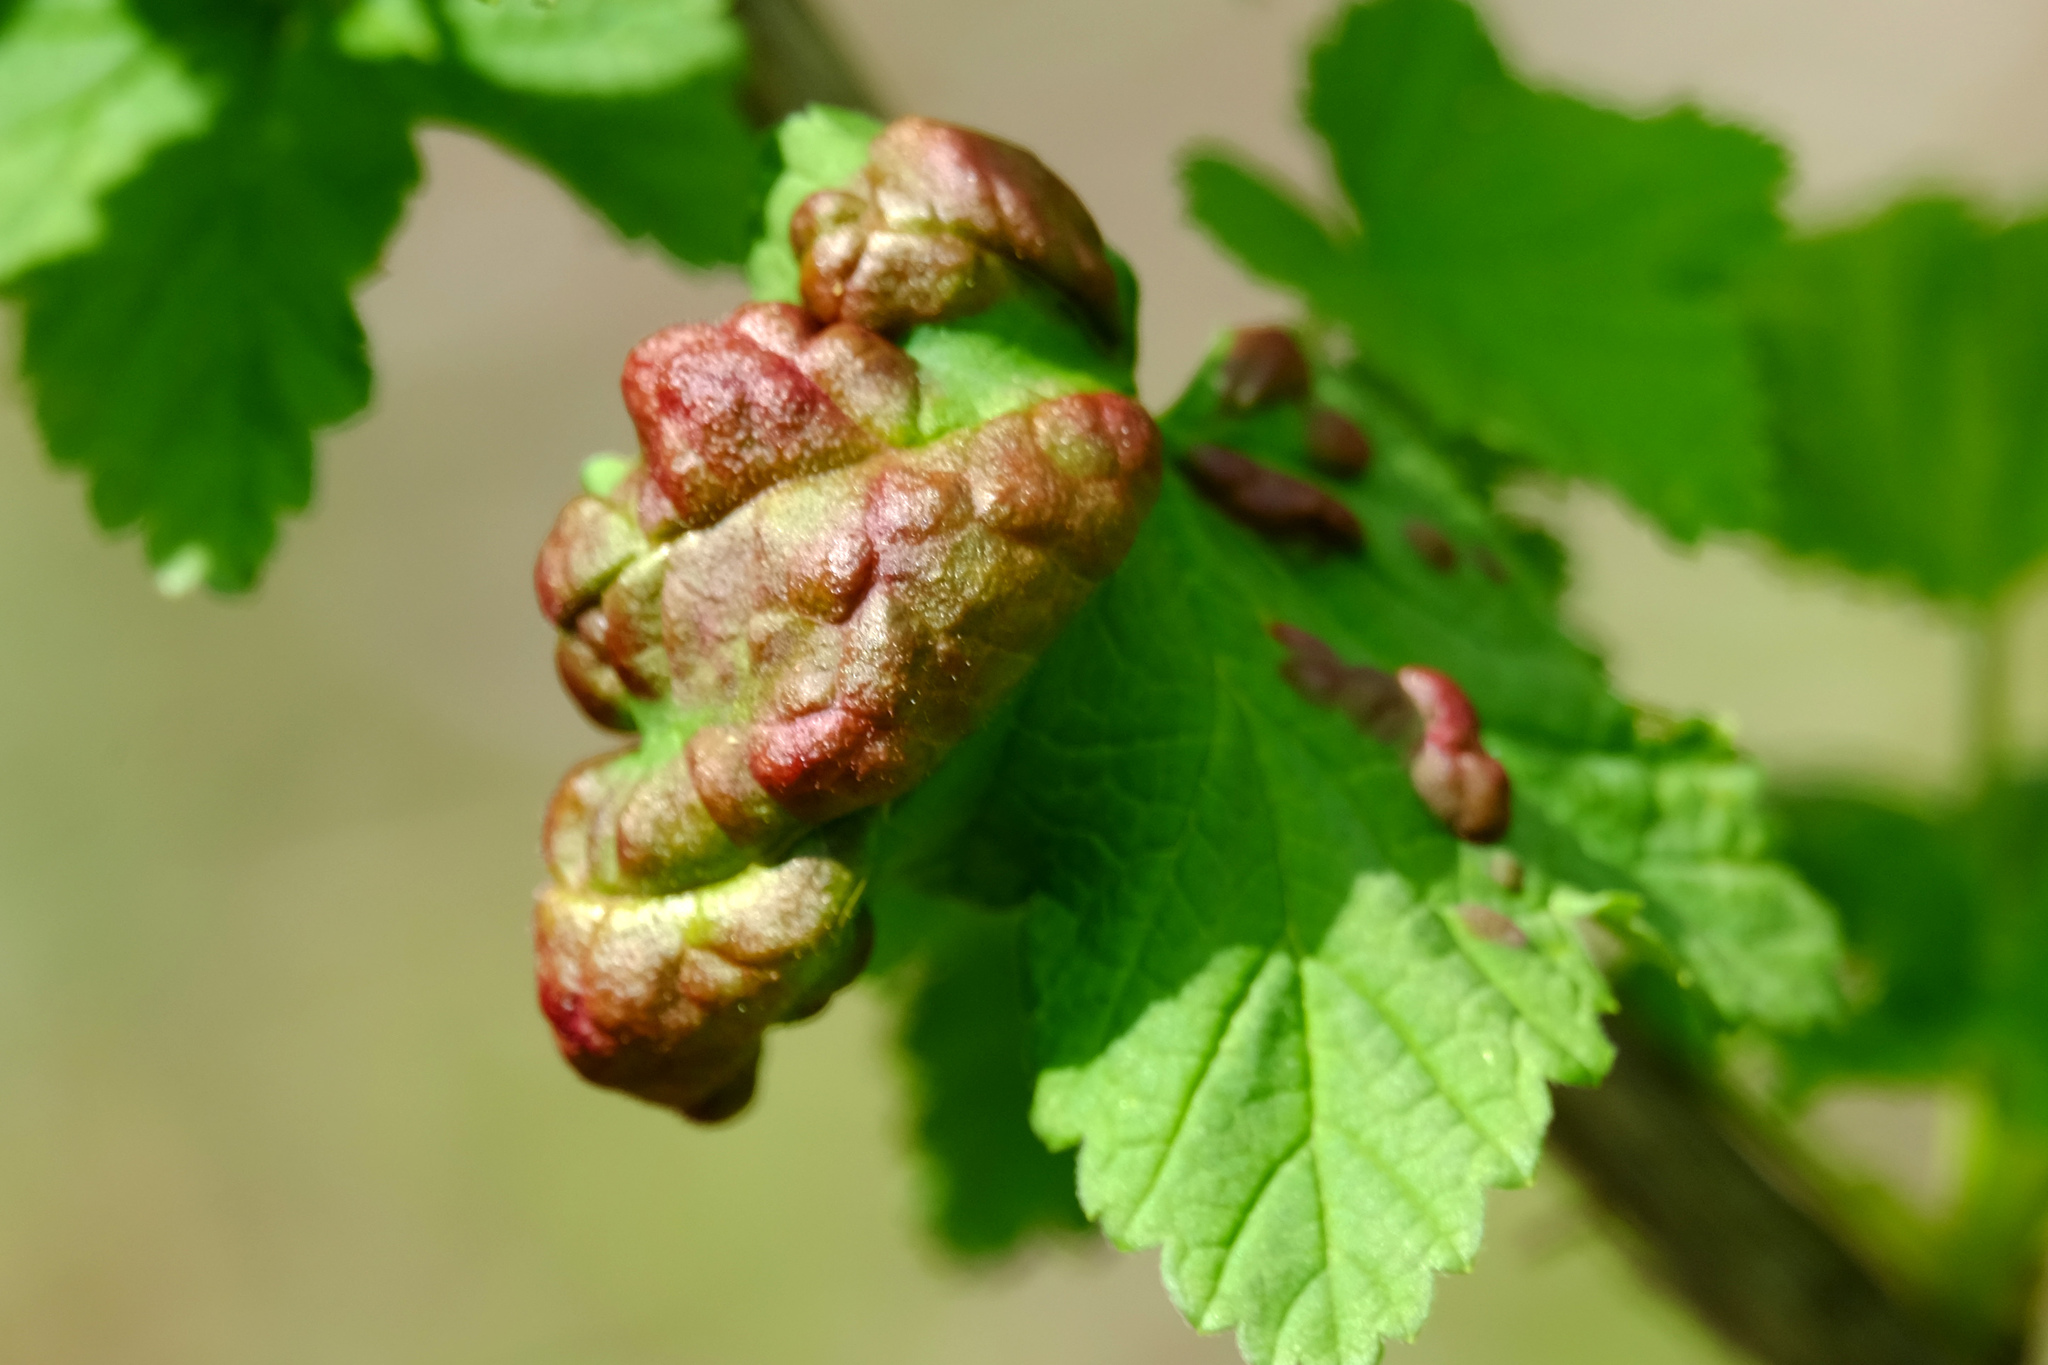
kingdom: Animalia
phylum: Arthropoda
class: Insecta
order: Hemiptera
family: Aphididae
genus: Cryptomyzus
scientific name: Cryptomyzus ribis
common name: Currant aphid
